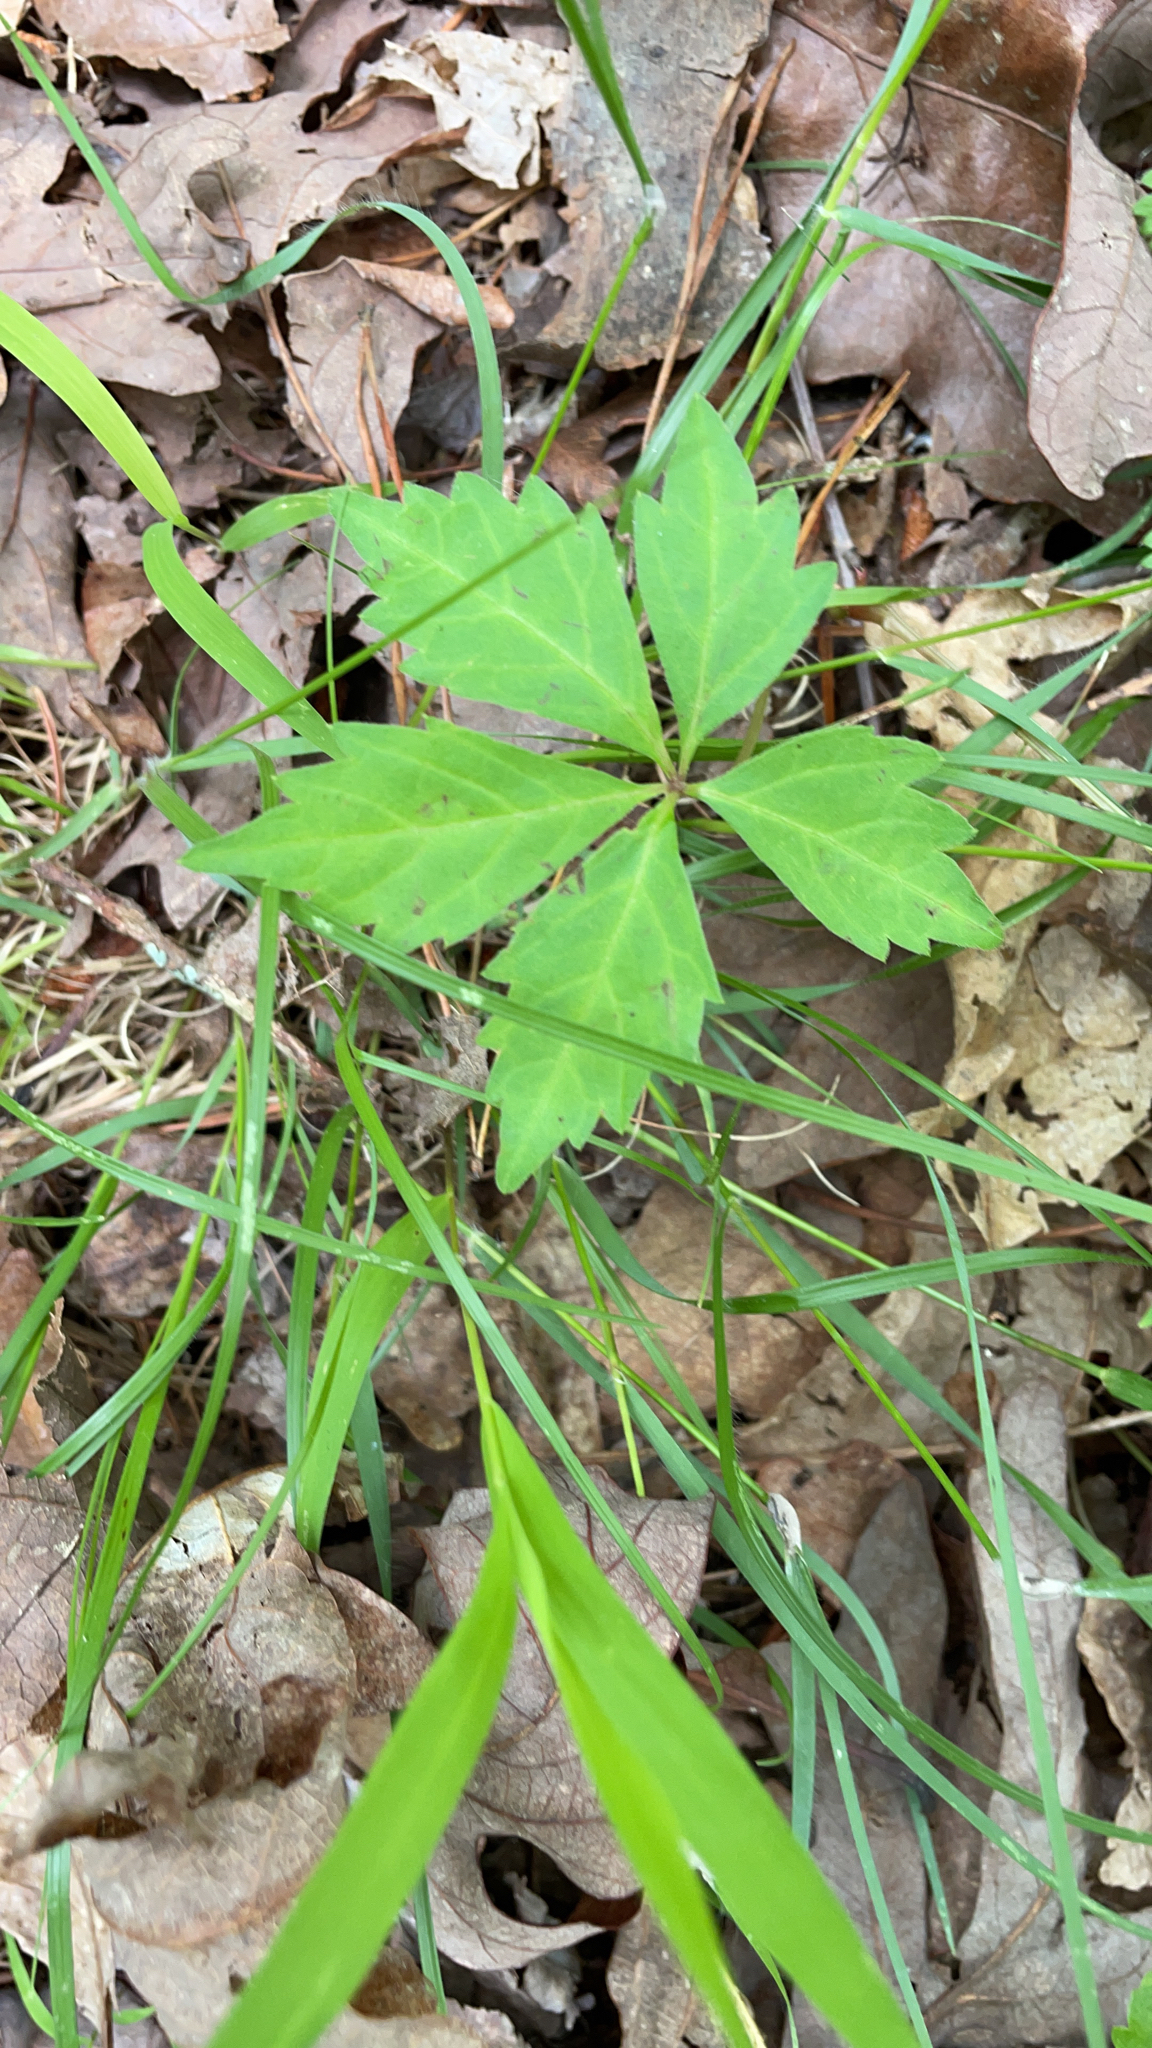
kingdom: Plantae
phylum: Tracheophyta
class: Magnoliopsida
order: Vitales
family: Vitaceae
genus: Parthenocissus
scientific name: Parthenocissus quinquefolia
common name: Virginia-creeper
